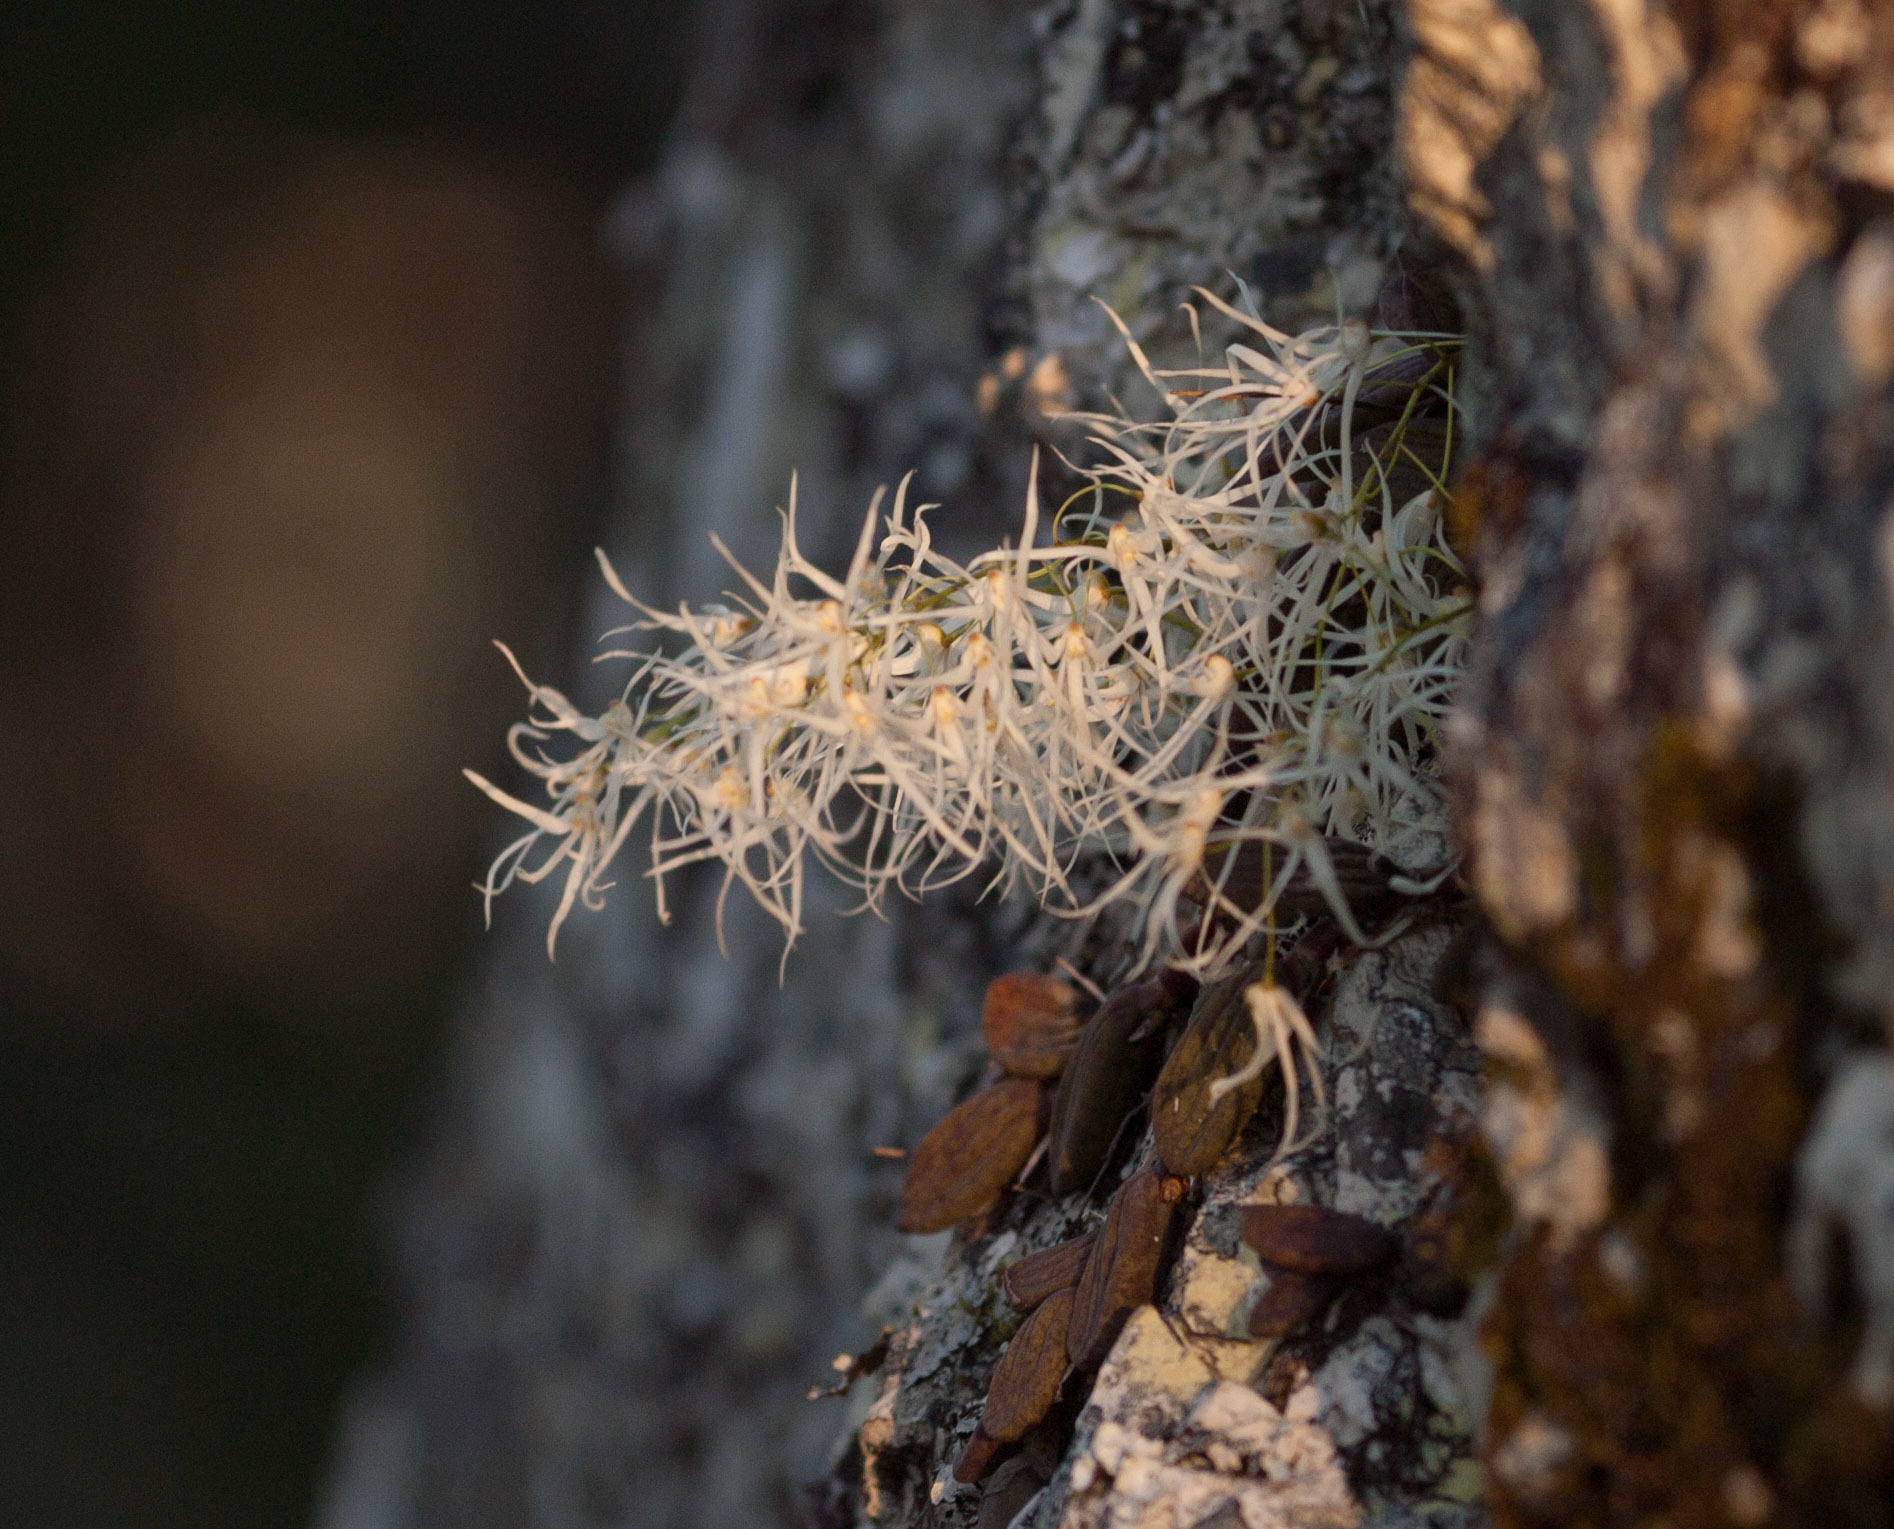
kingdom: Plantae
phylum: Tracheophyta
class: Liliopsida
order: Asparagales
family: Orchidaceae
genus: Dendrobium
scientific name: Dendrobium linguiforme
